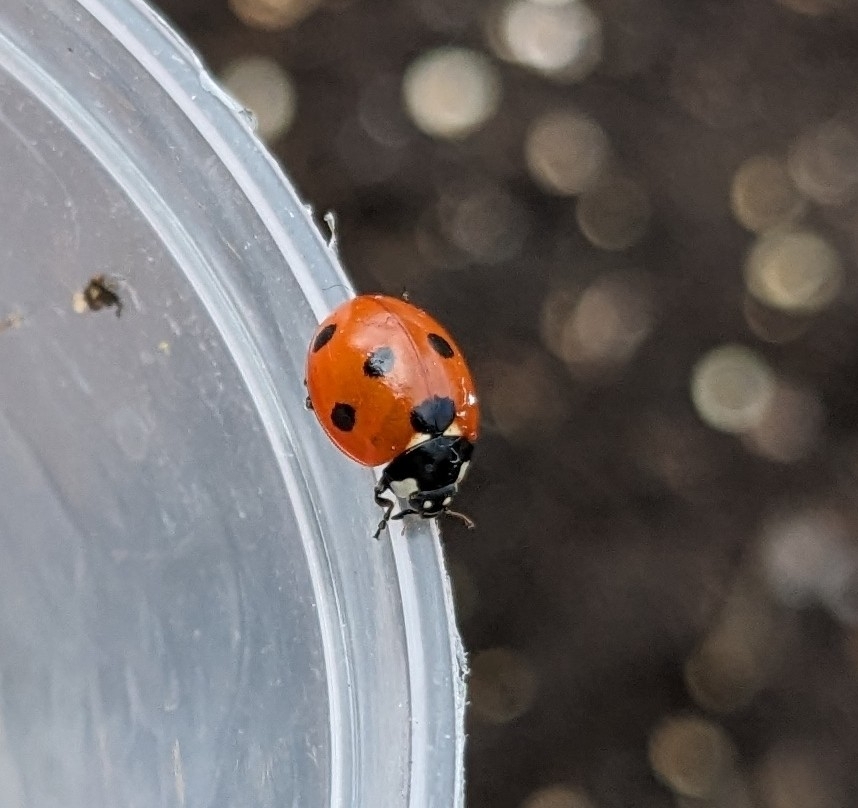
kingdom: Animalia
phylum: Arthropoda
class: Insecta
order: Coleoptera
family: Coccinellidae
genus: Coccinella
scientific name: Coccinella septempunctata
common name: Sevenspotted lady beetle
